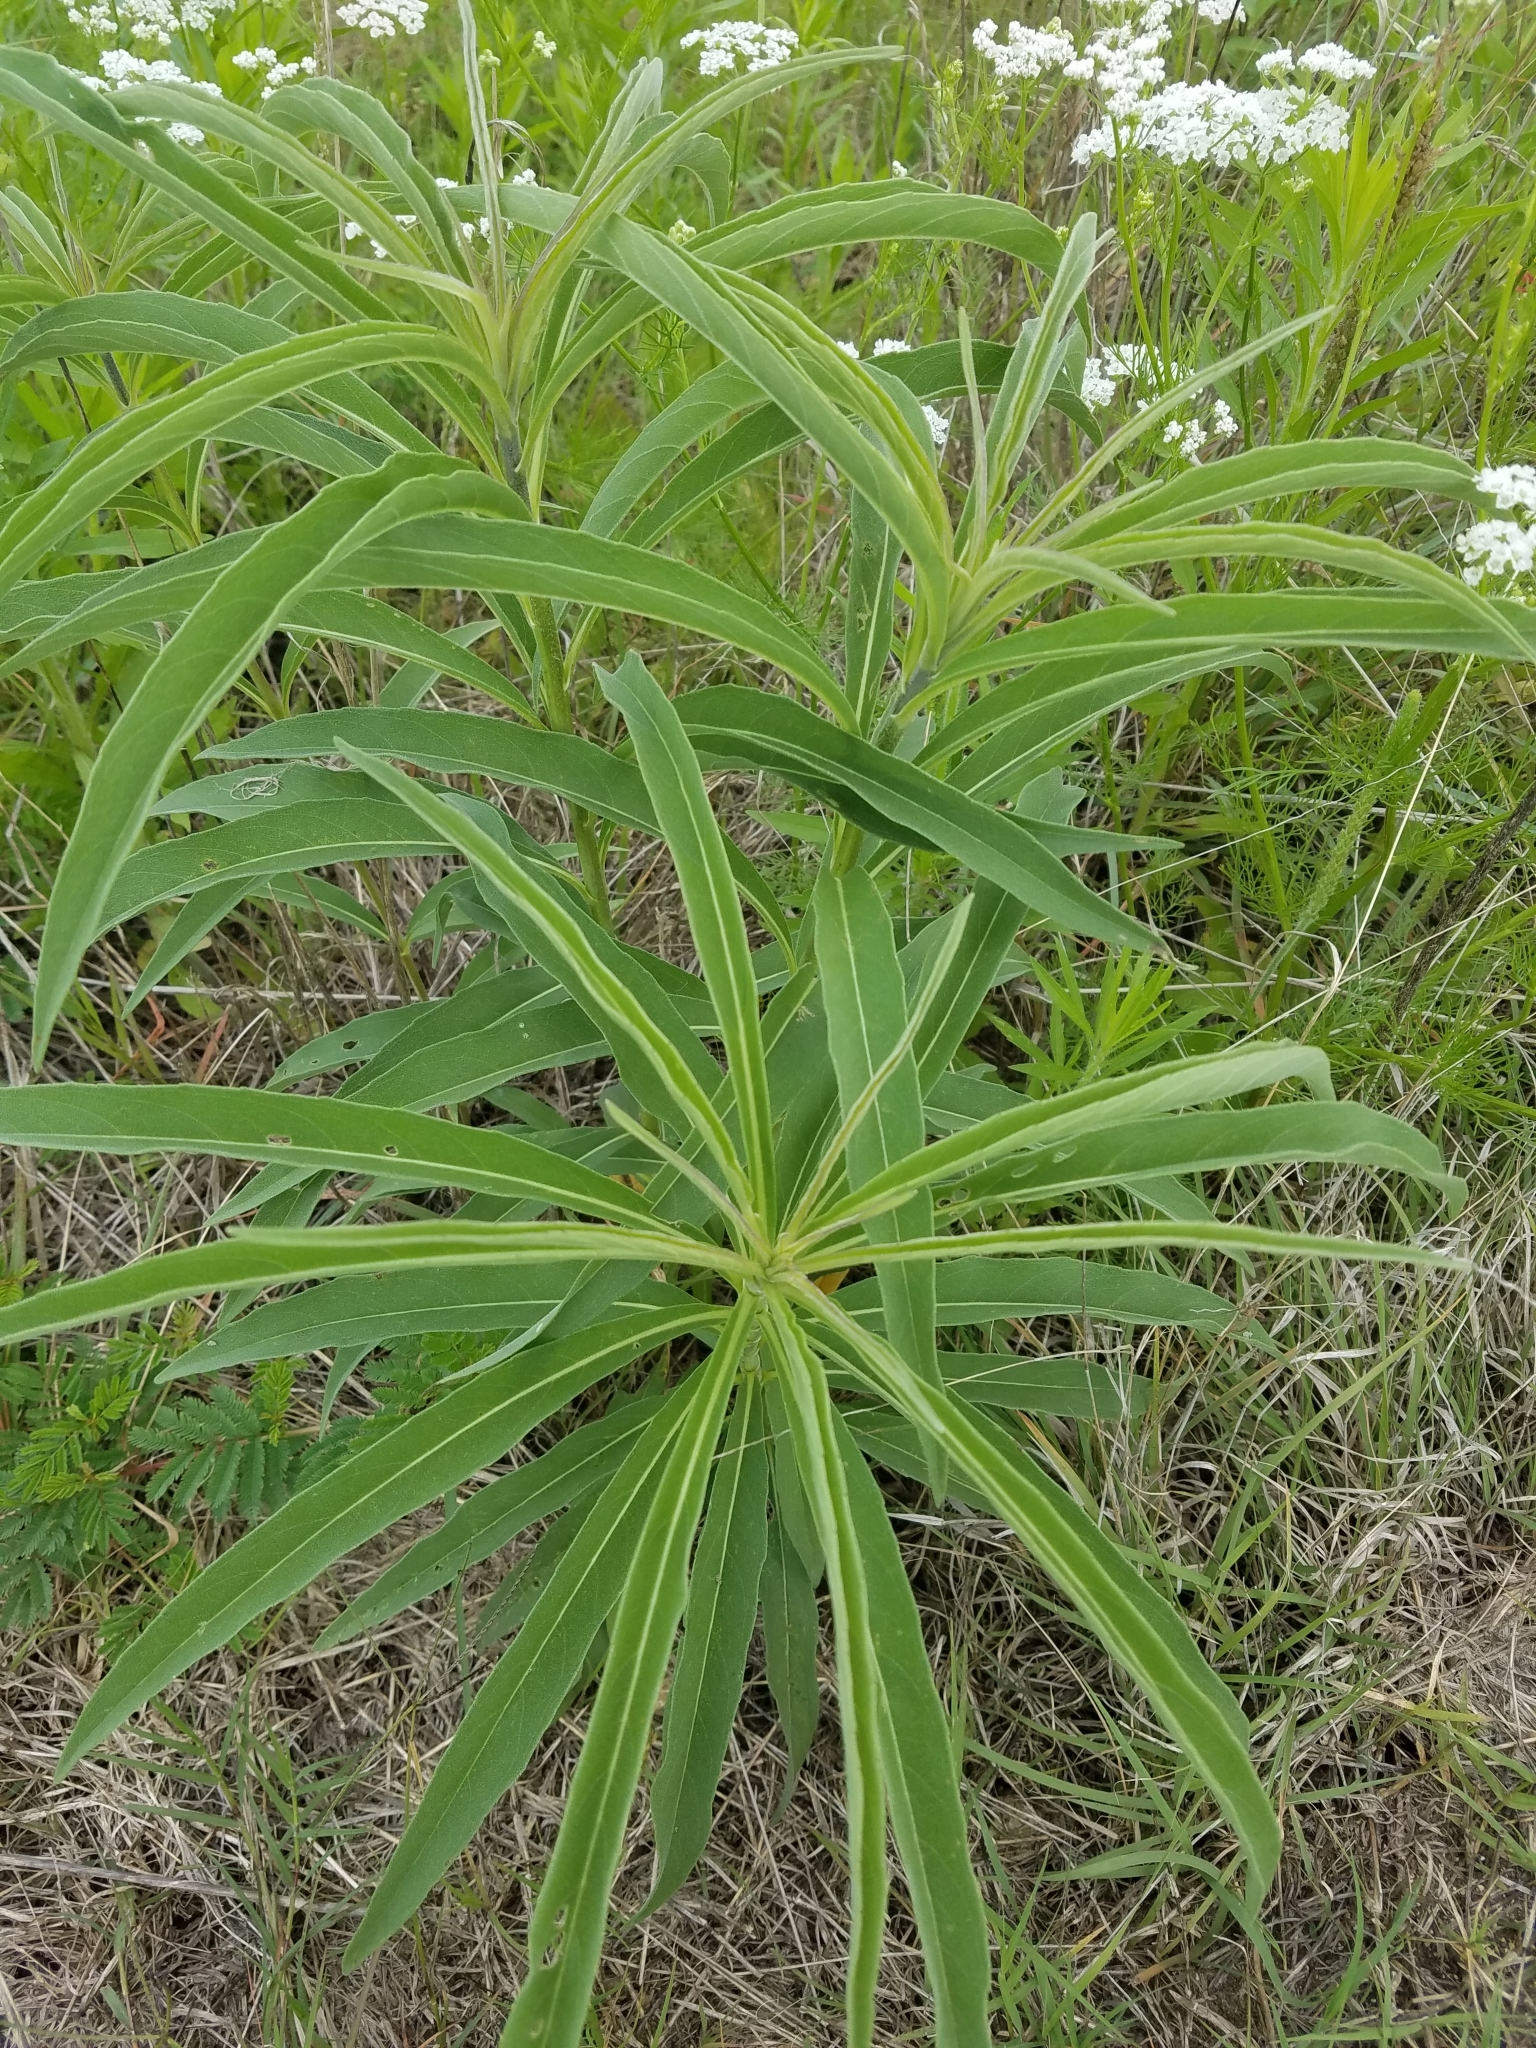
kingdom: Plantae
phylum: Tracheophyta
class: Magnoliopsida
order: Asterales
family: Asteraceae
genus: Helianthus
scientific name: Helianthus maximiliani
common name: Maximilian's sunflower
